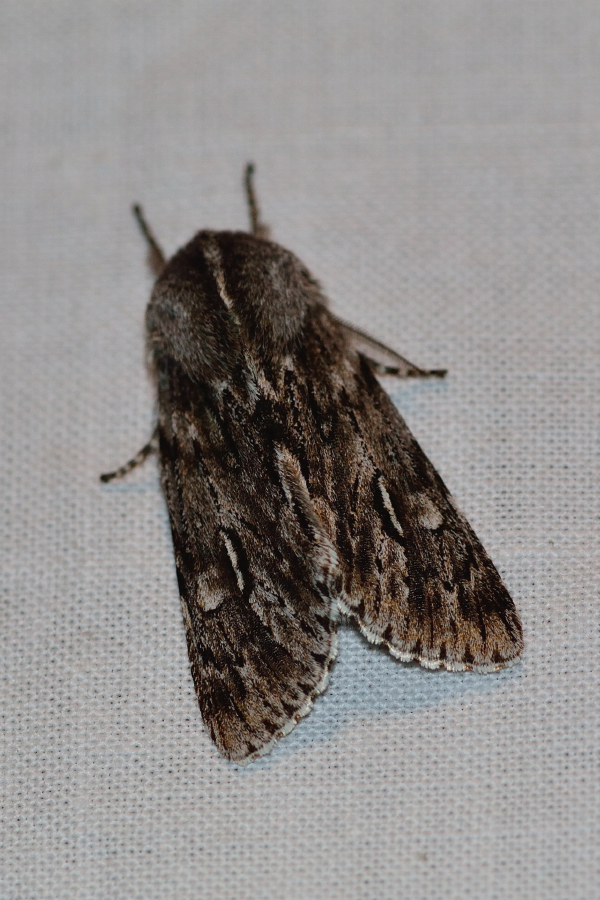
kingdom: Animalia
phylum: Arthropoda
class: Insecta
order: Lepidoptera
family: Noctuidae
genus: Brachionycha
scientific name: Brachionycha nubeculosa
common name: Rannoch sprawler
